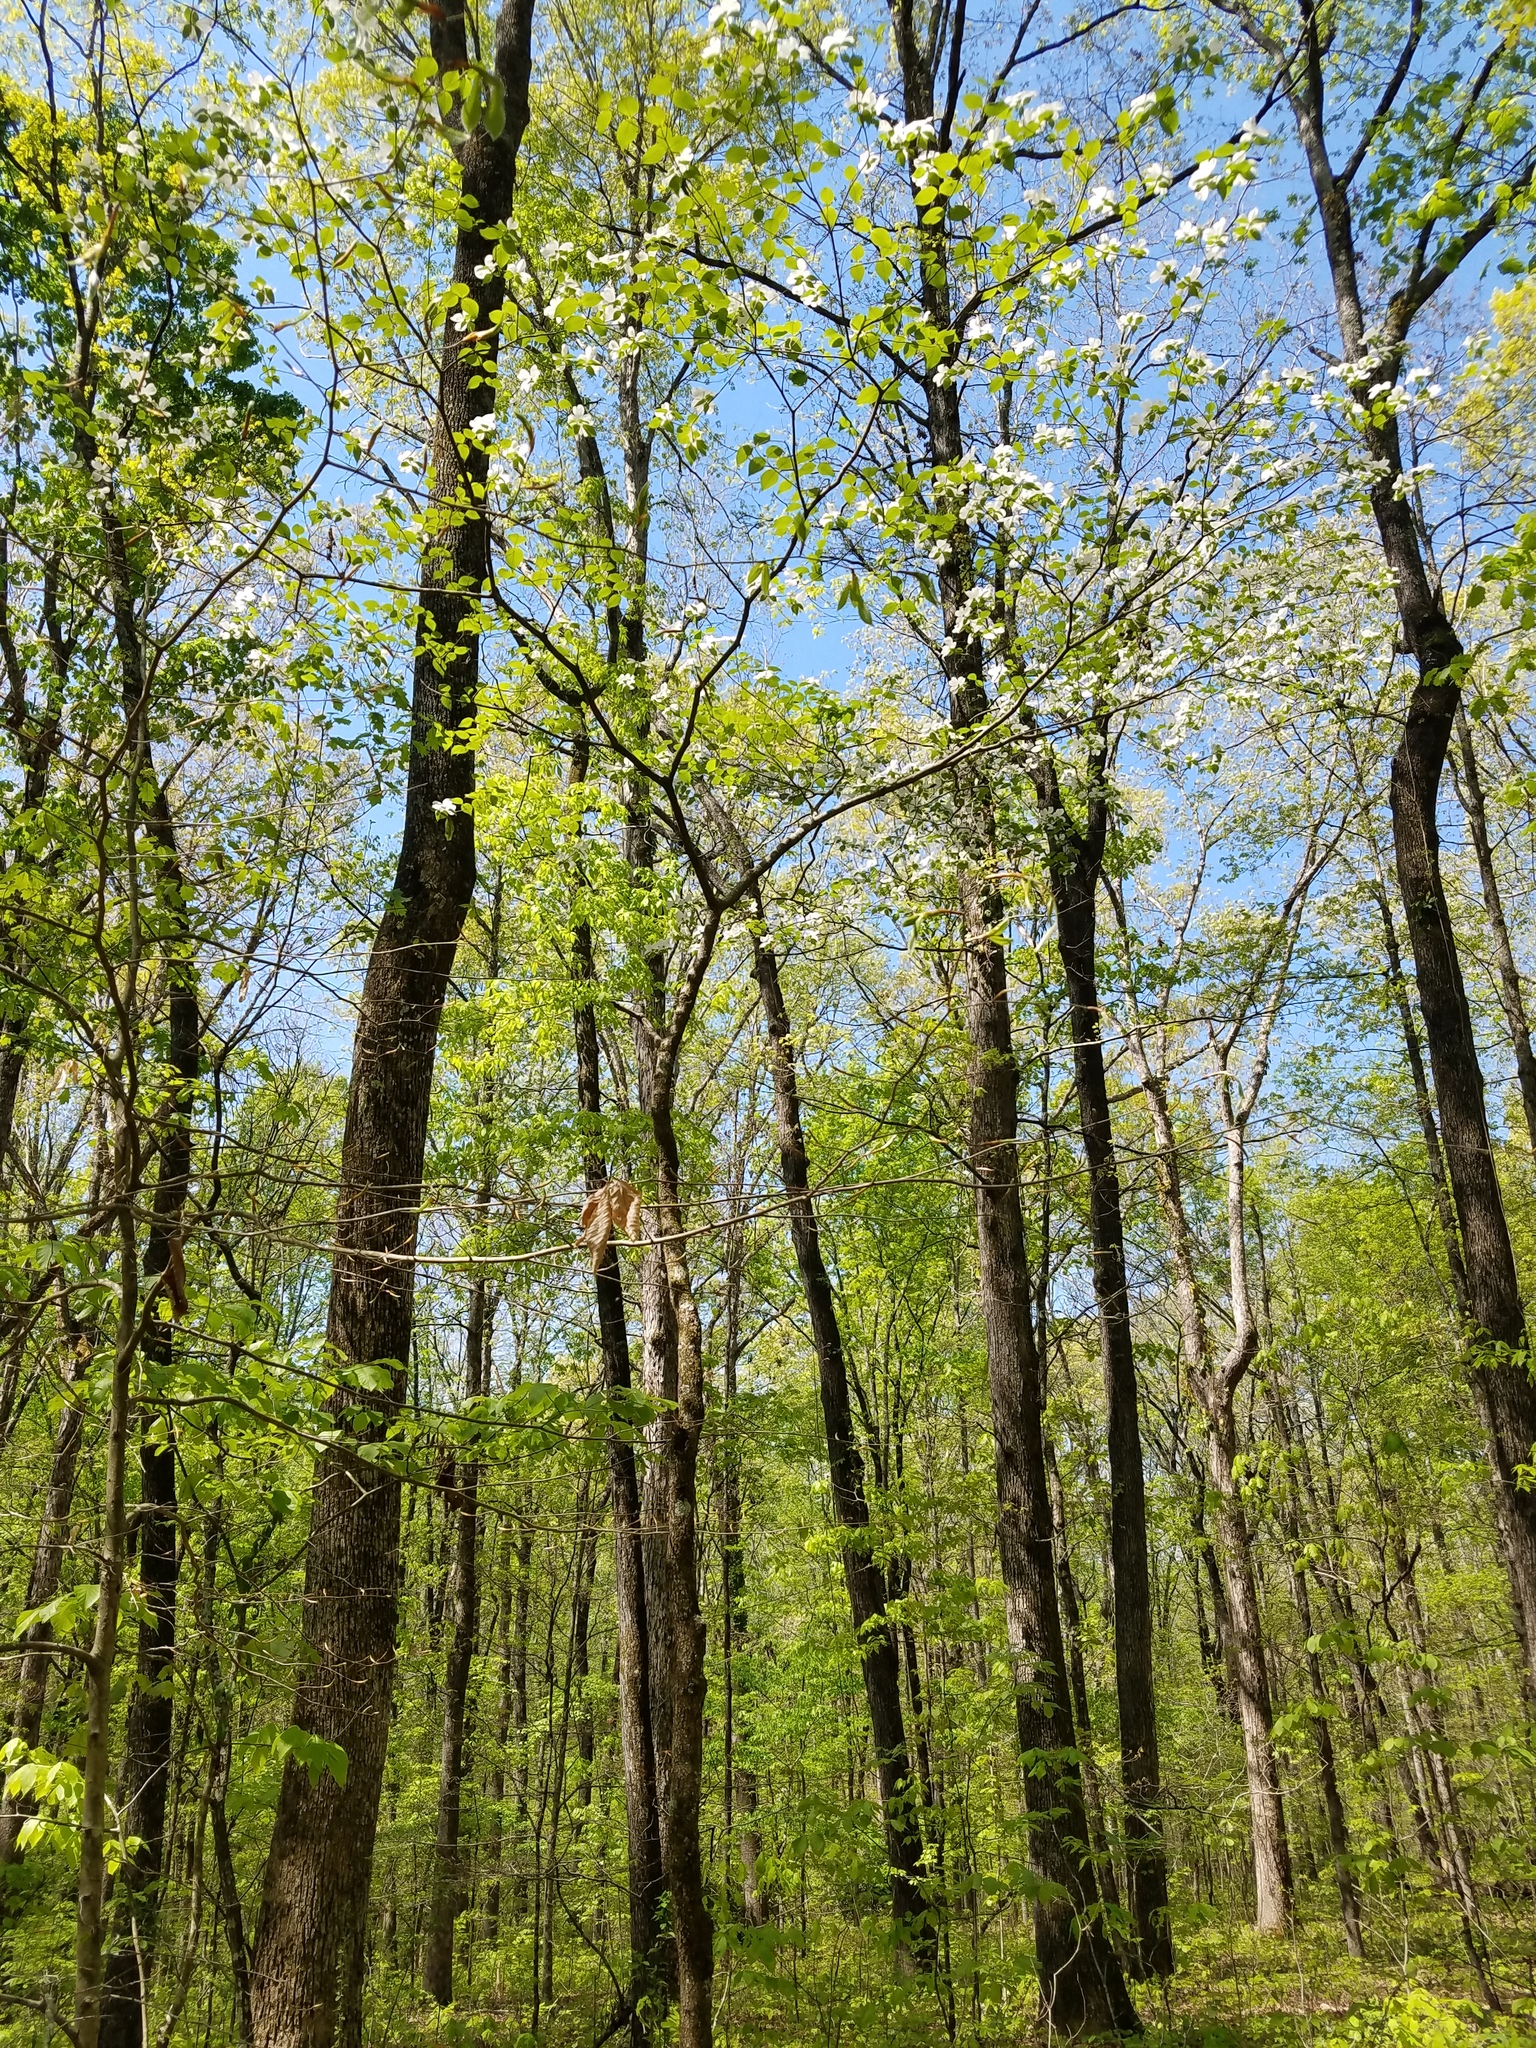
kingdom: Plantae
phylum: Tracheophyta
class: Magnoliopsida
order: Cornales
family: Cornaceae
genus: Cornus
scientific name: Cornus florida
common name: Flowering dogwood
